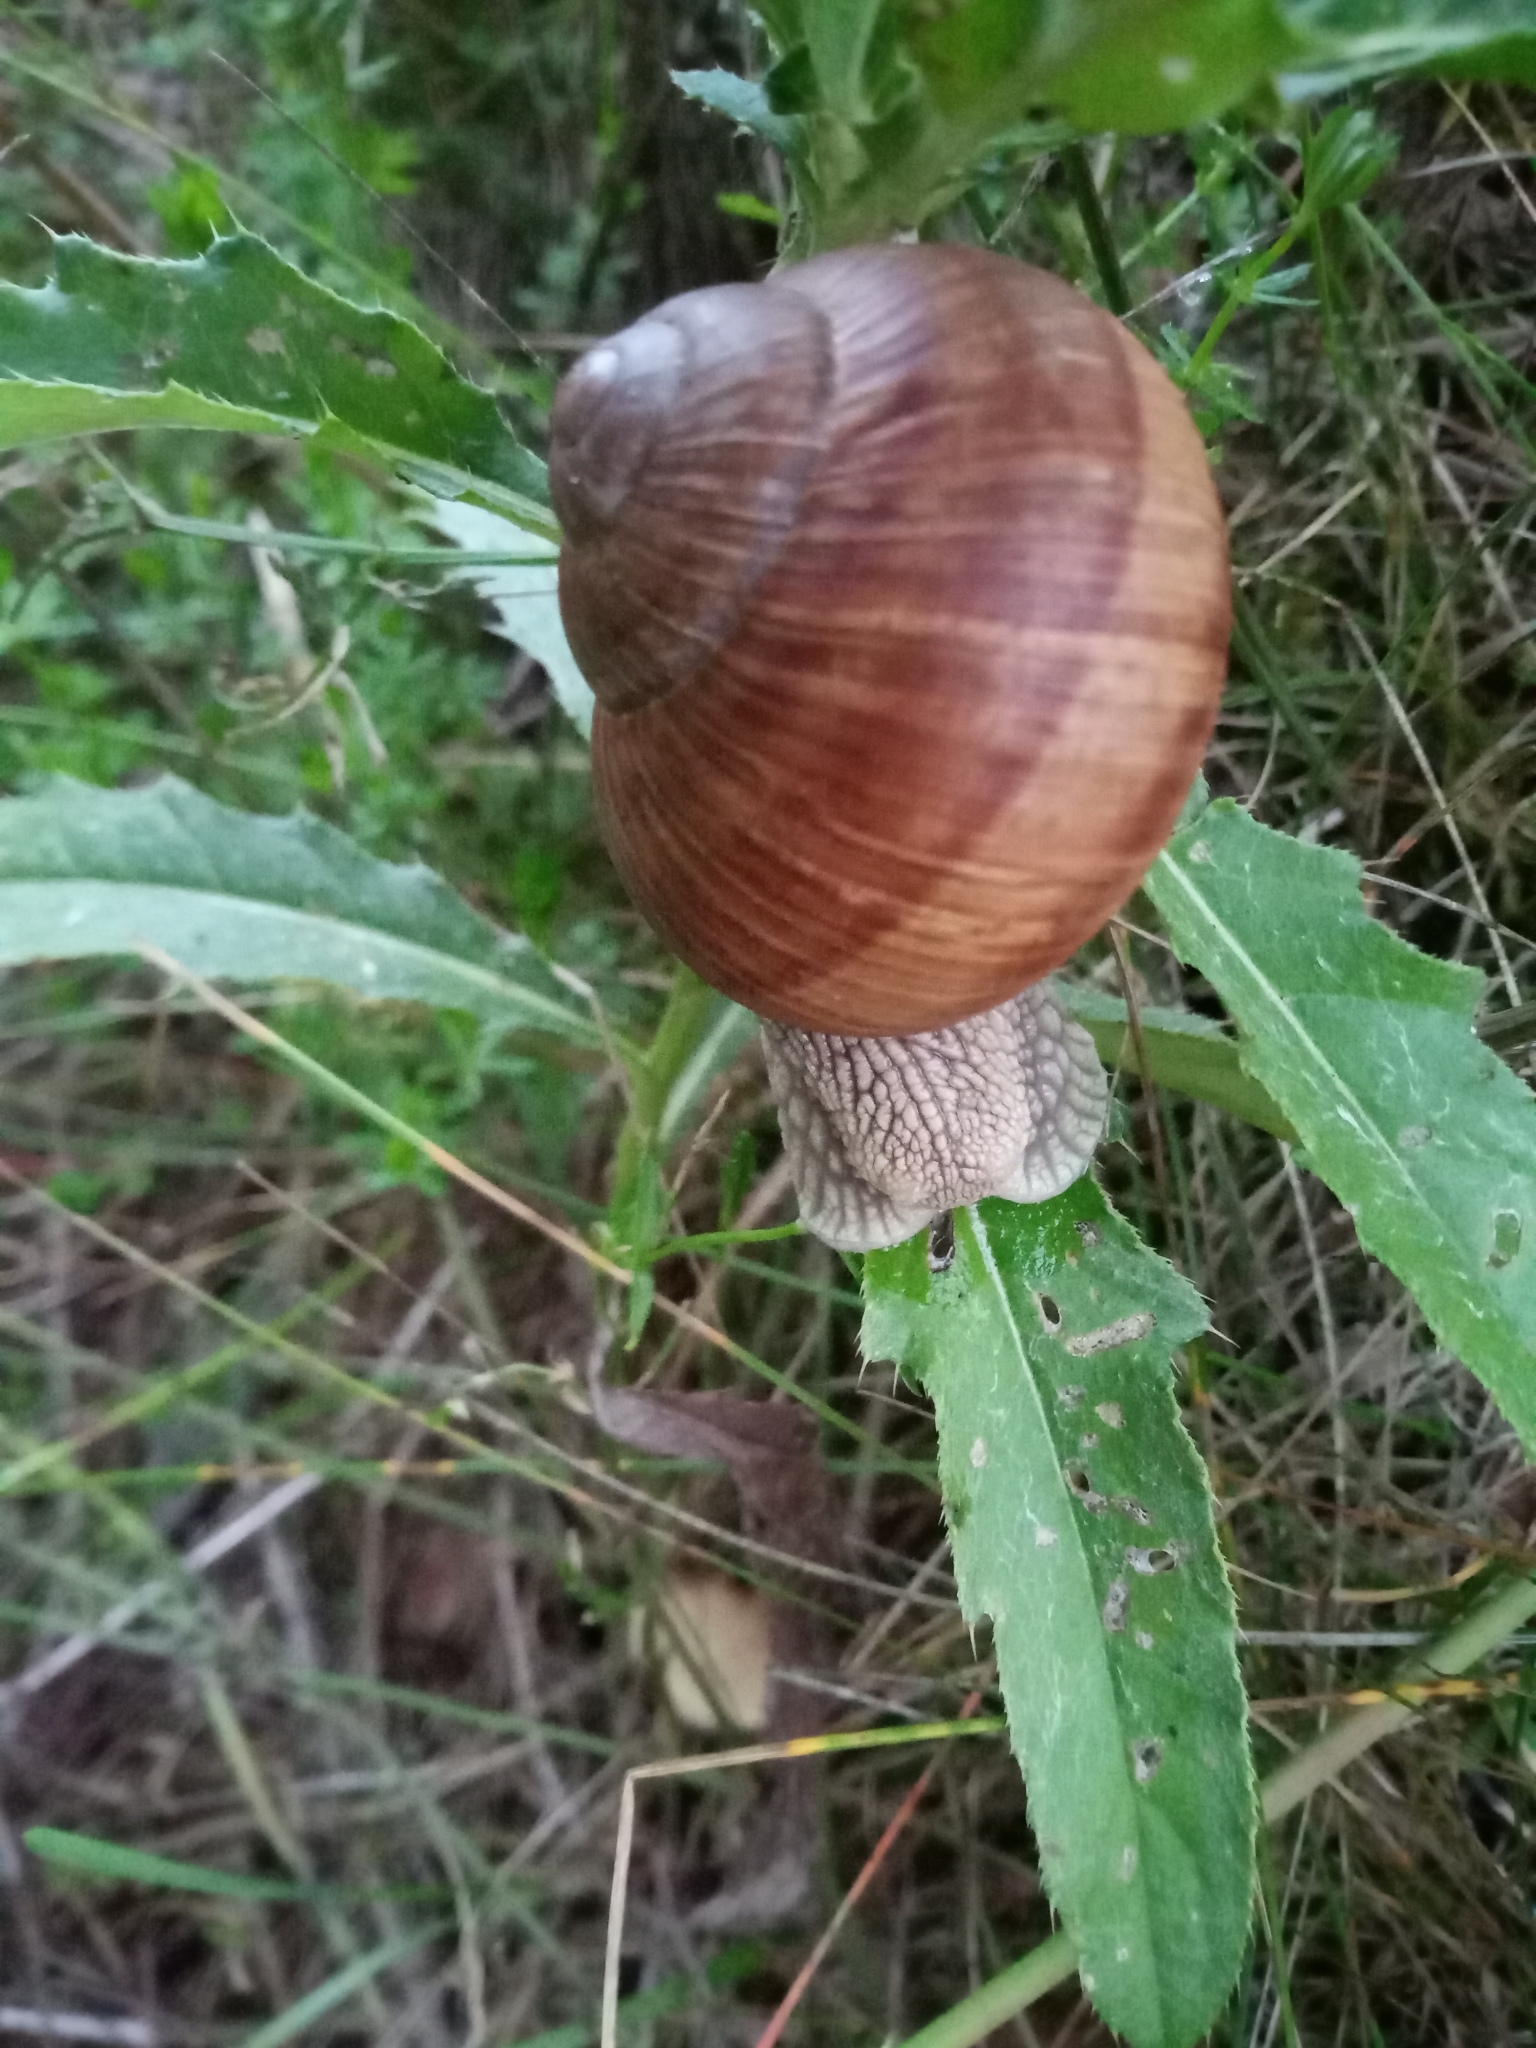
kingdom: Animalia
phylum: Mollusca
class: Gastropoda
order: Stylommatophora
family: Helicidae
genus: Helix
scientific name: Helix pomatia
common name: Roman snail
